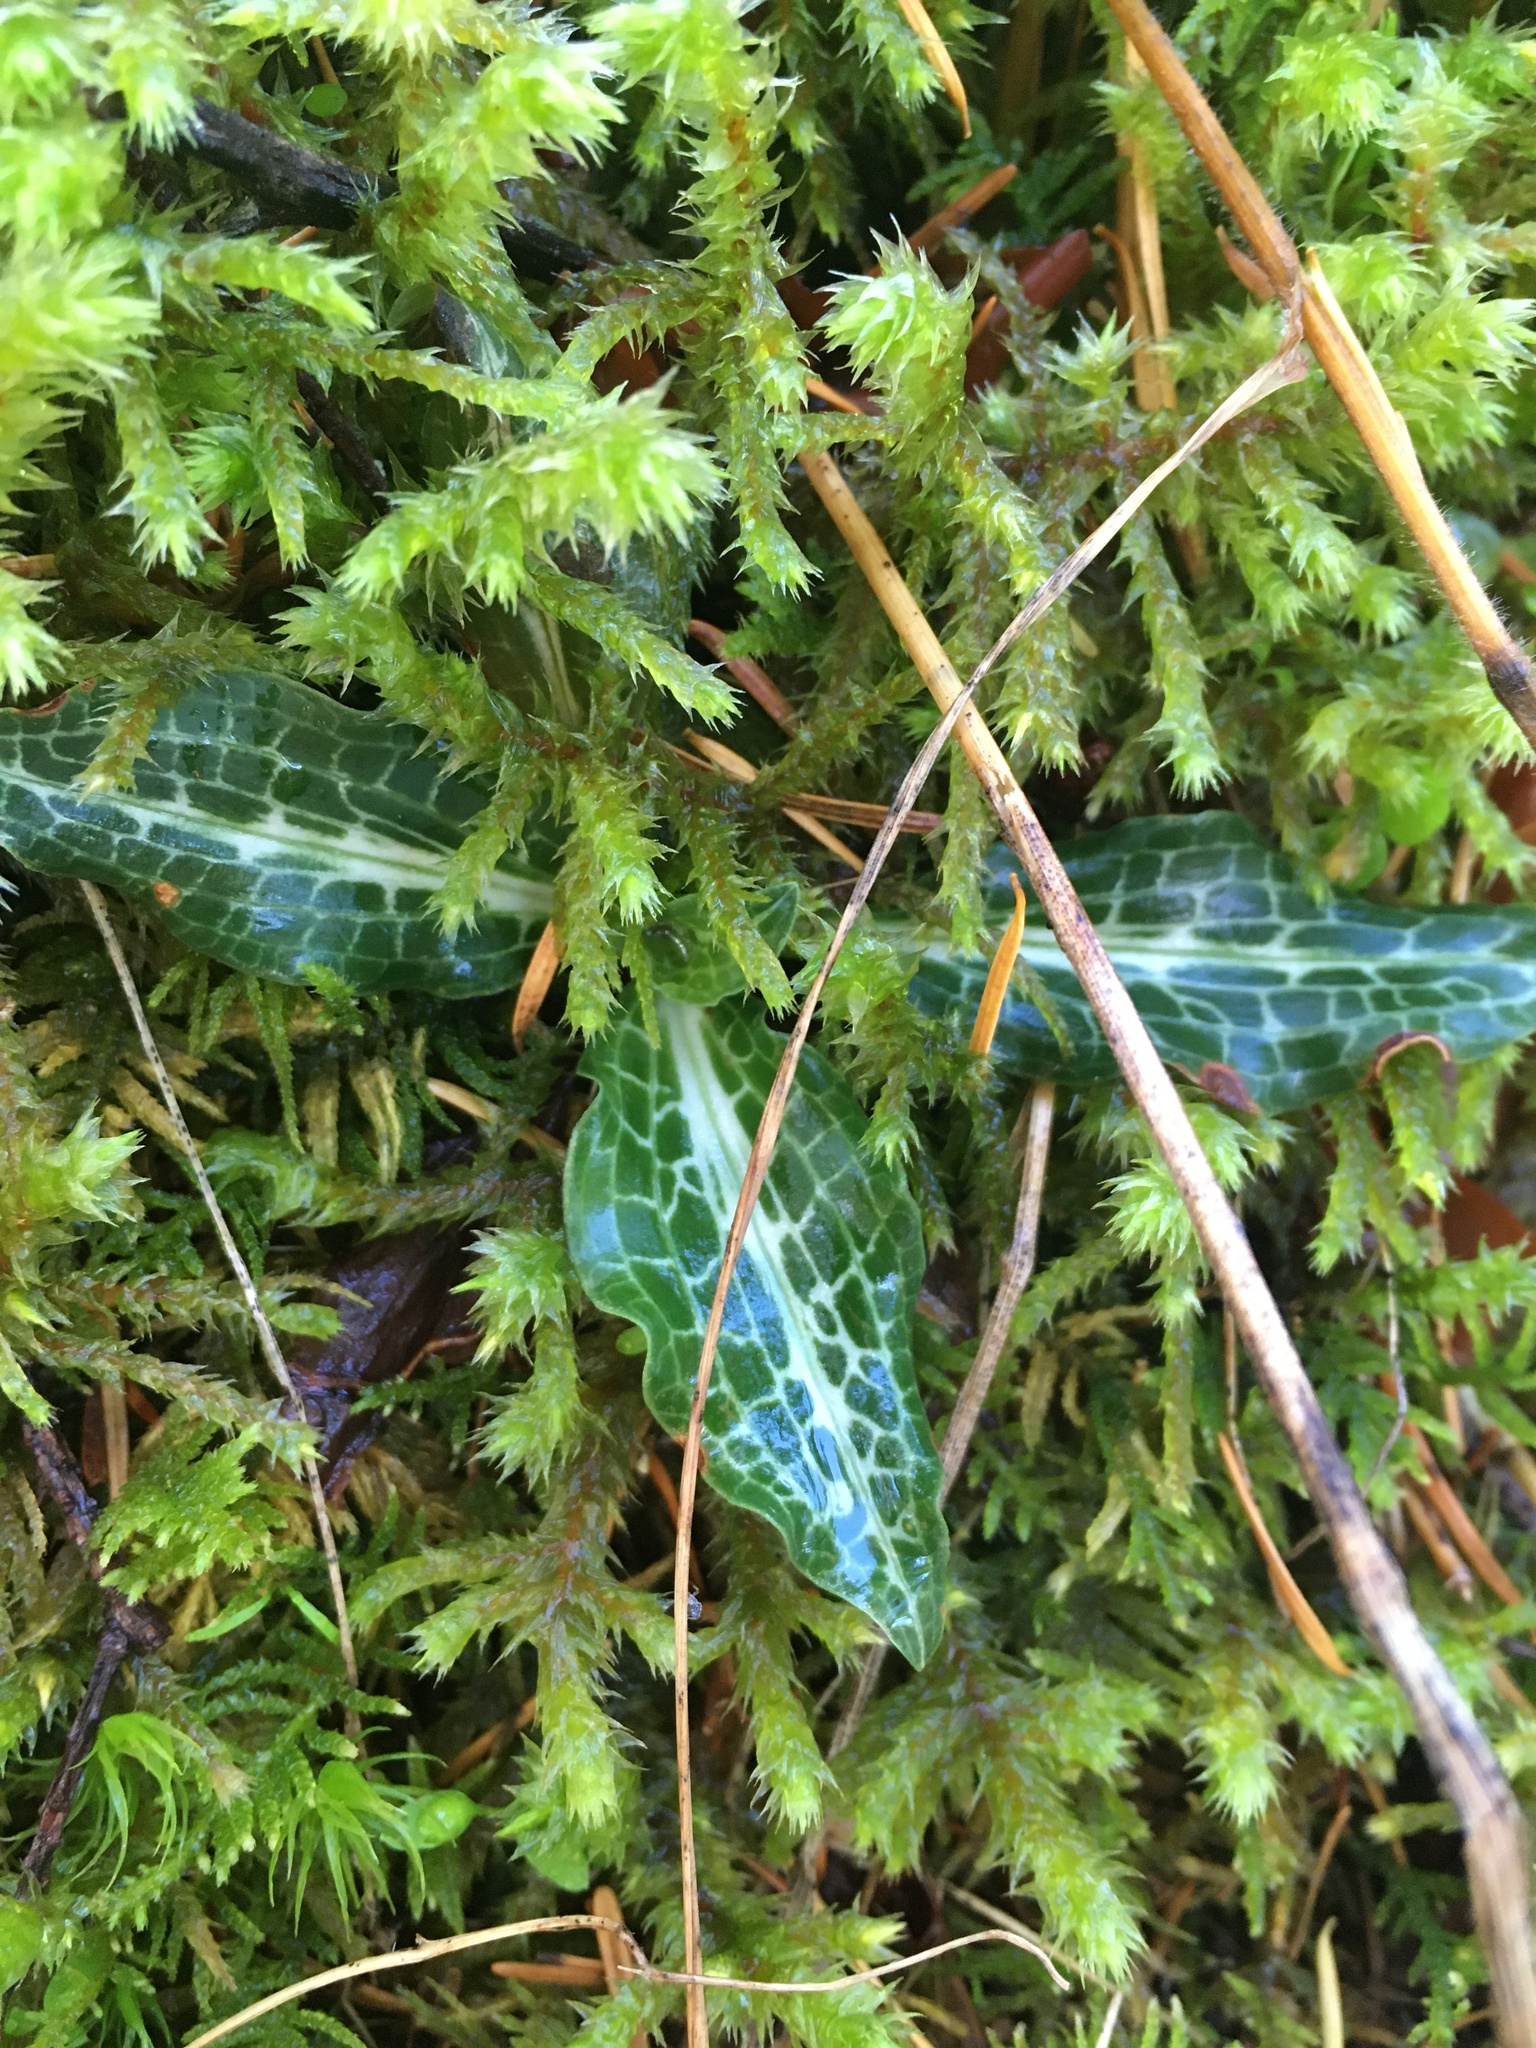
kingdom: Plantae
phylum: Tracheophyta
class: Liliopsida
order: Asparagales
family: Orchidaceae
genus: Goodyera
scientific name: Goodyera oblongifolia
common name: Giant rattlesnake-plantain
